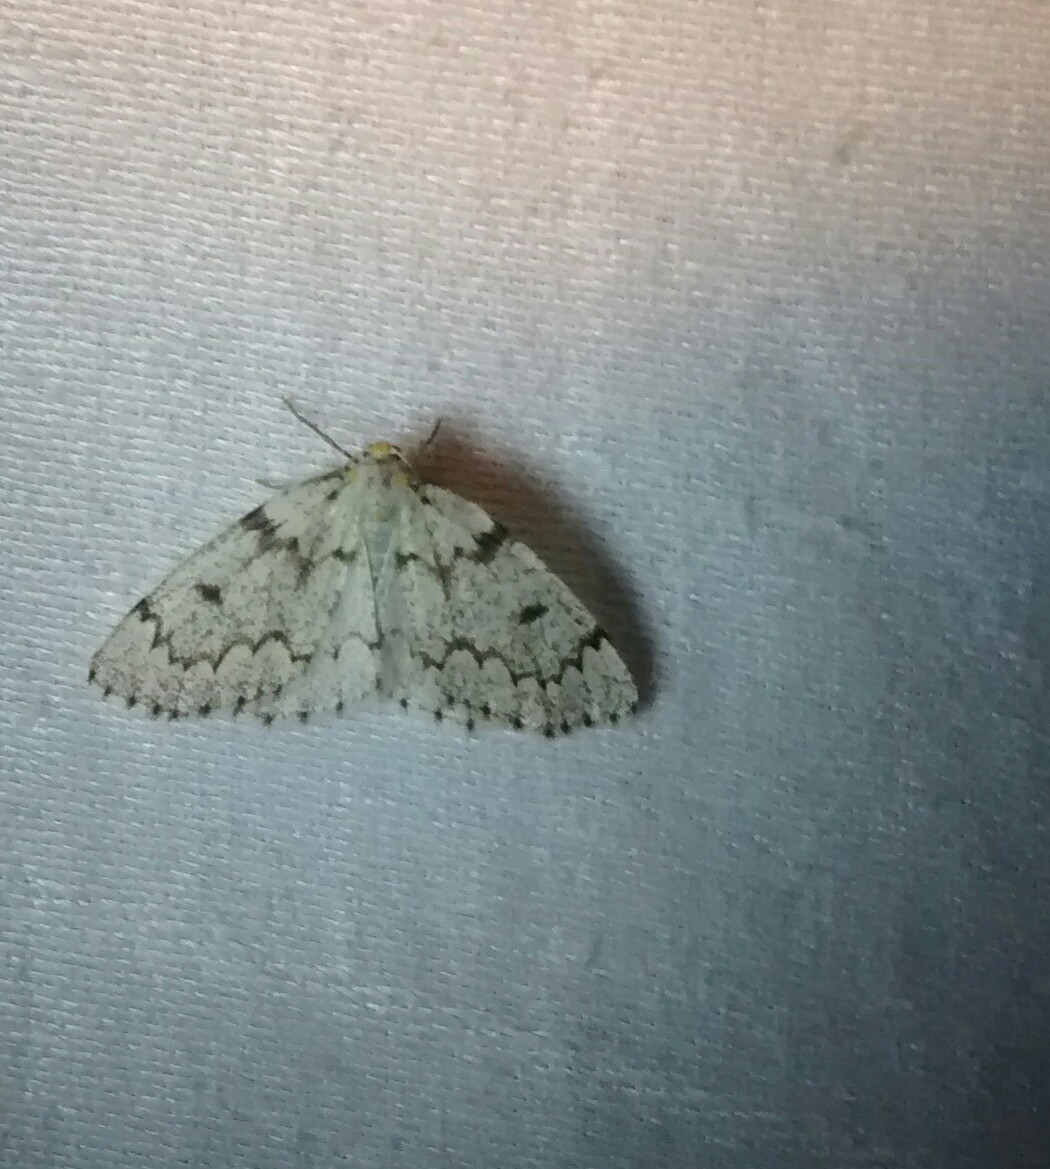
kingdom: Animalia
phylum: Arthropoda
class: Insecta
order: Lepidoptera
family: Geometridae
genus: Nepytia
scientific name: Nepytia canosaria
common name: False hemlock looper
